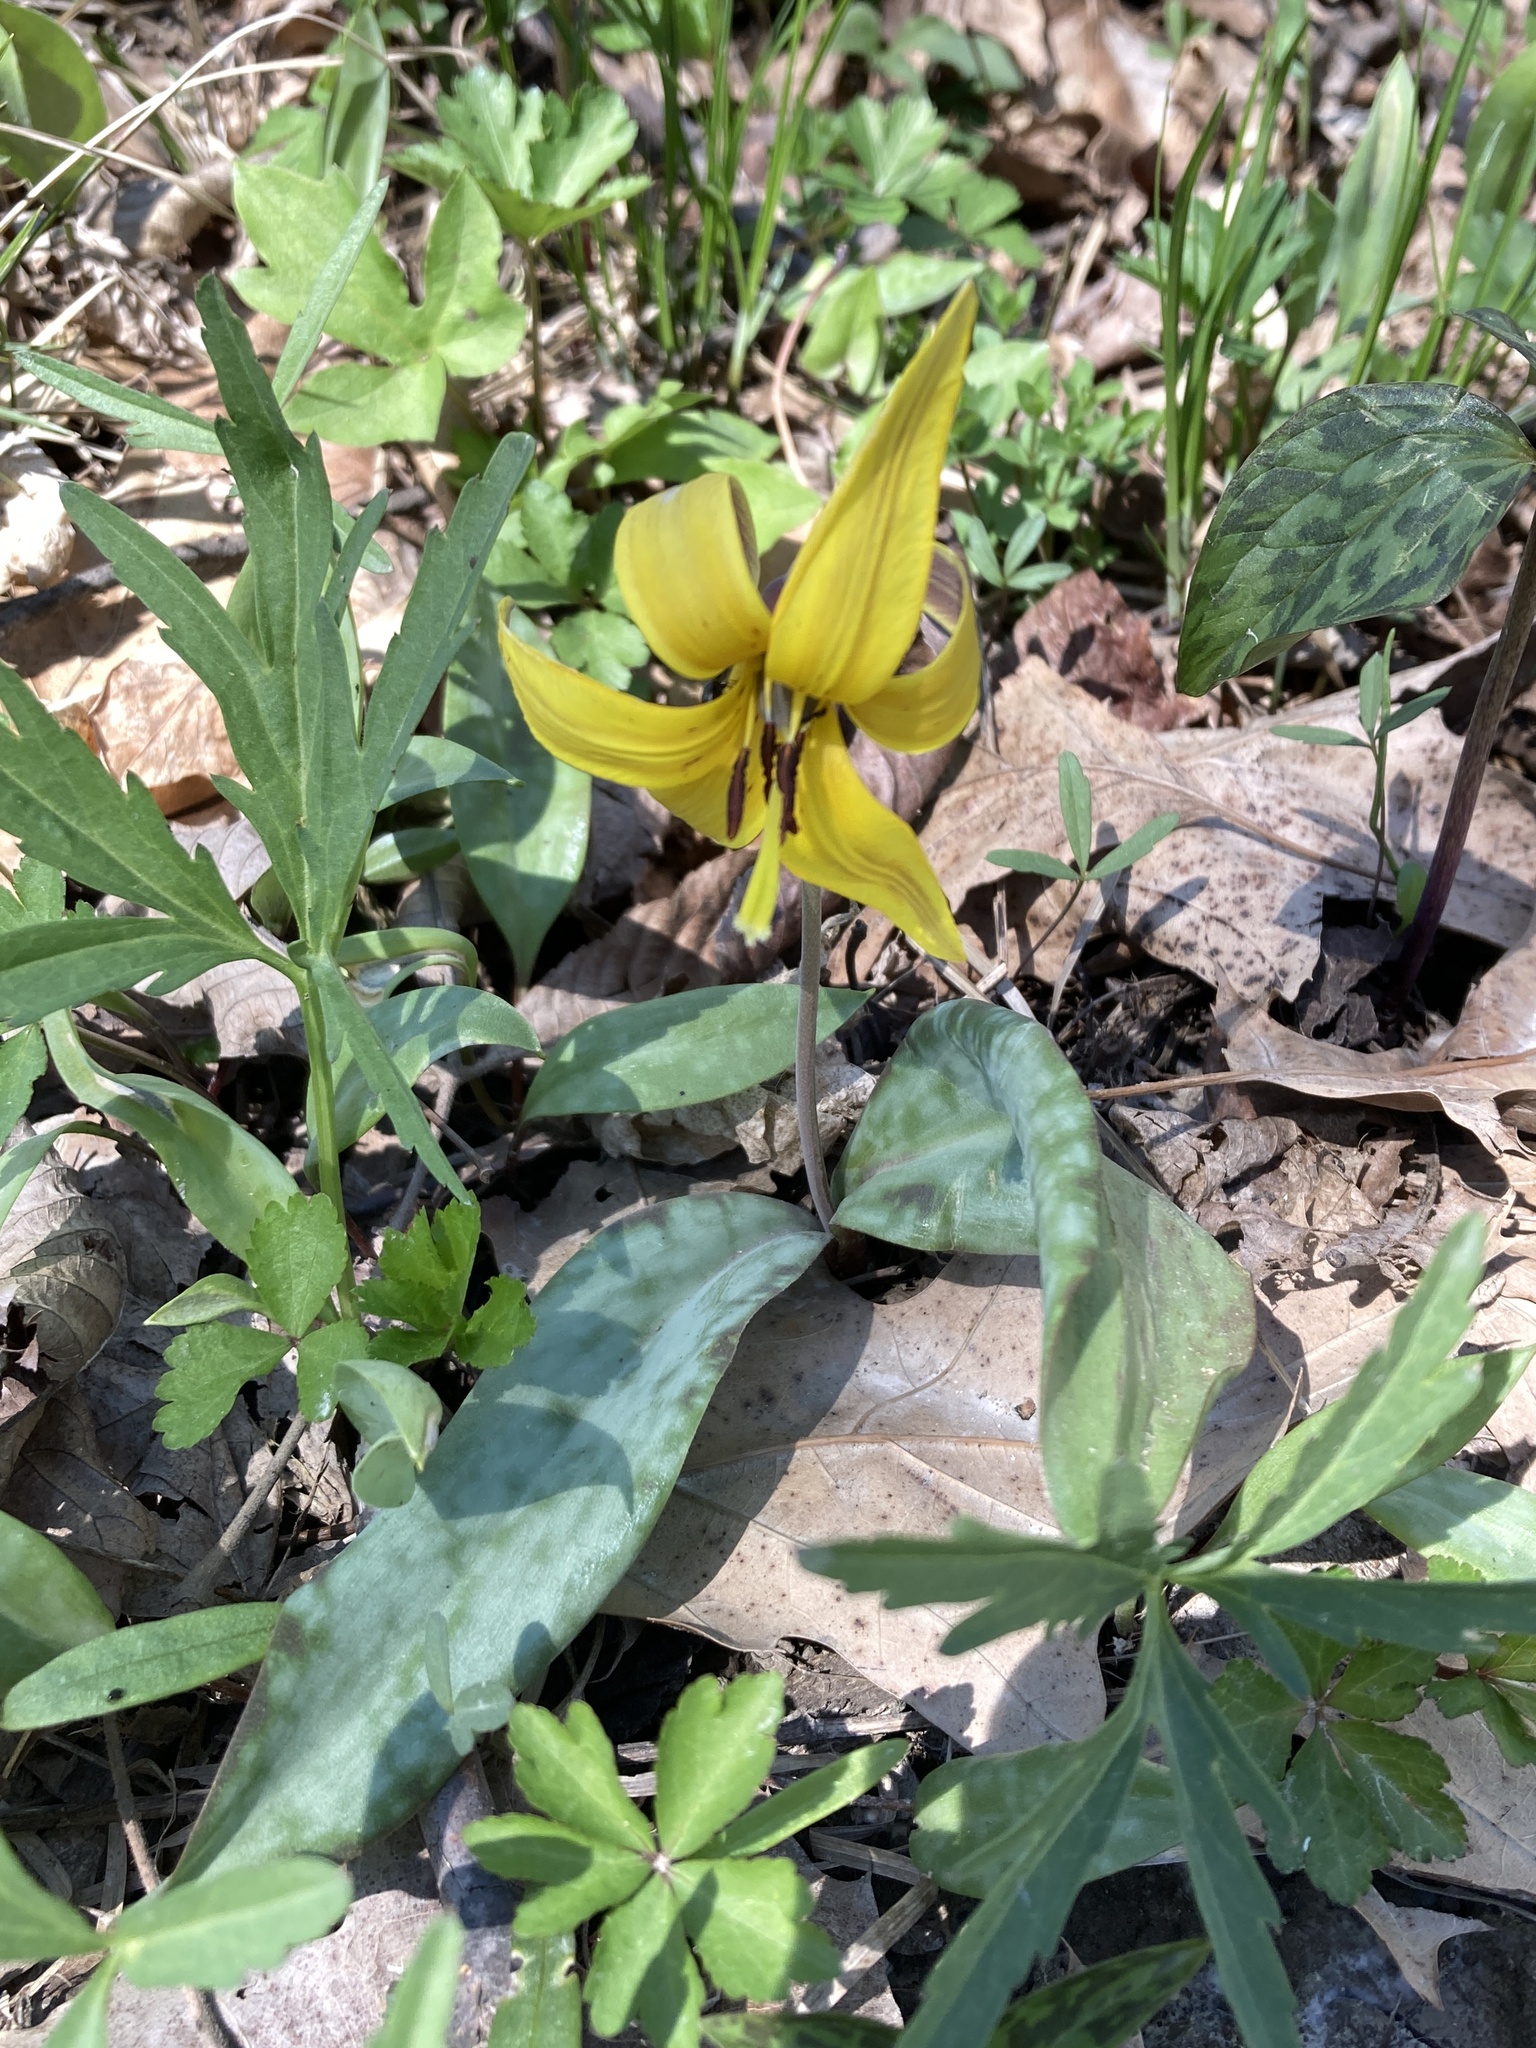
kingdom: Plantae
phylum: Tracheophyta
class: Liliopsida
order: Liliales
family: Liliaceae
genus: Erythronium
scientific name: Erythronium americanum
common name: Yellow adder's-tongue
